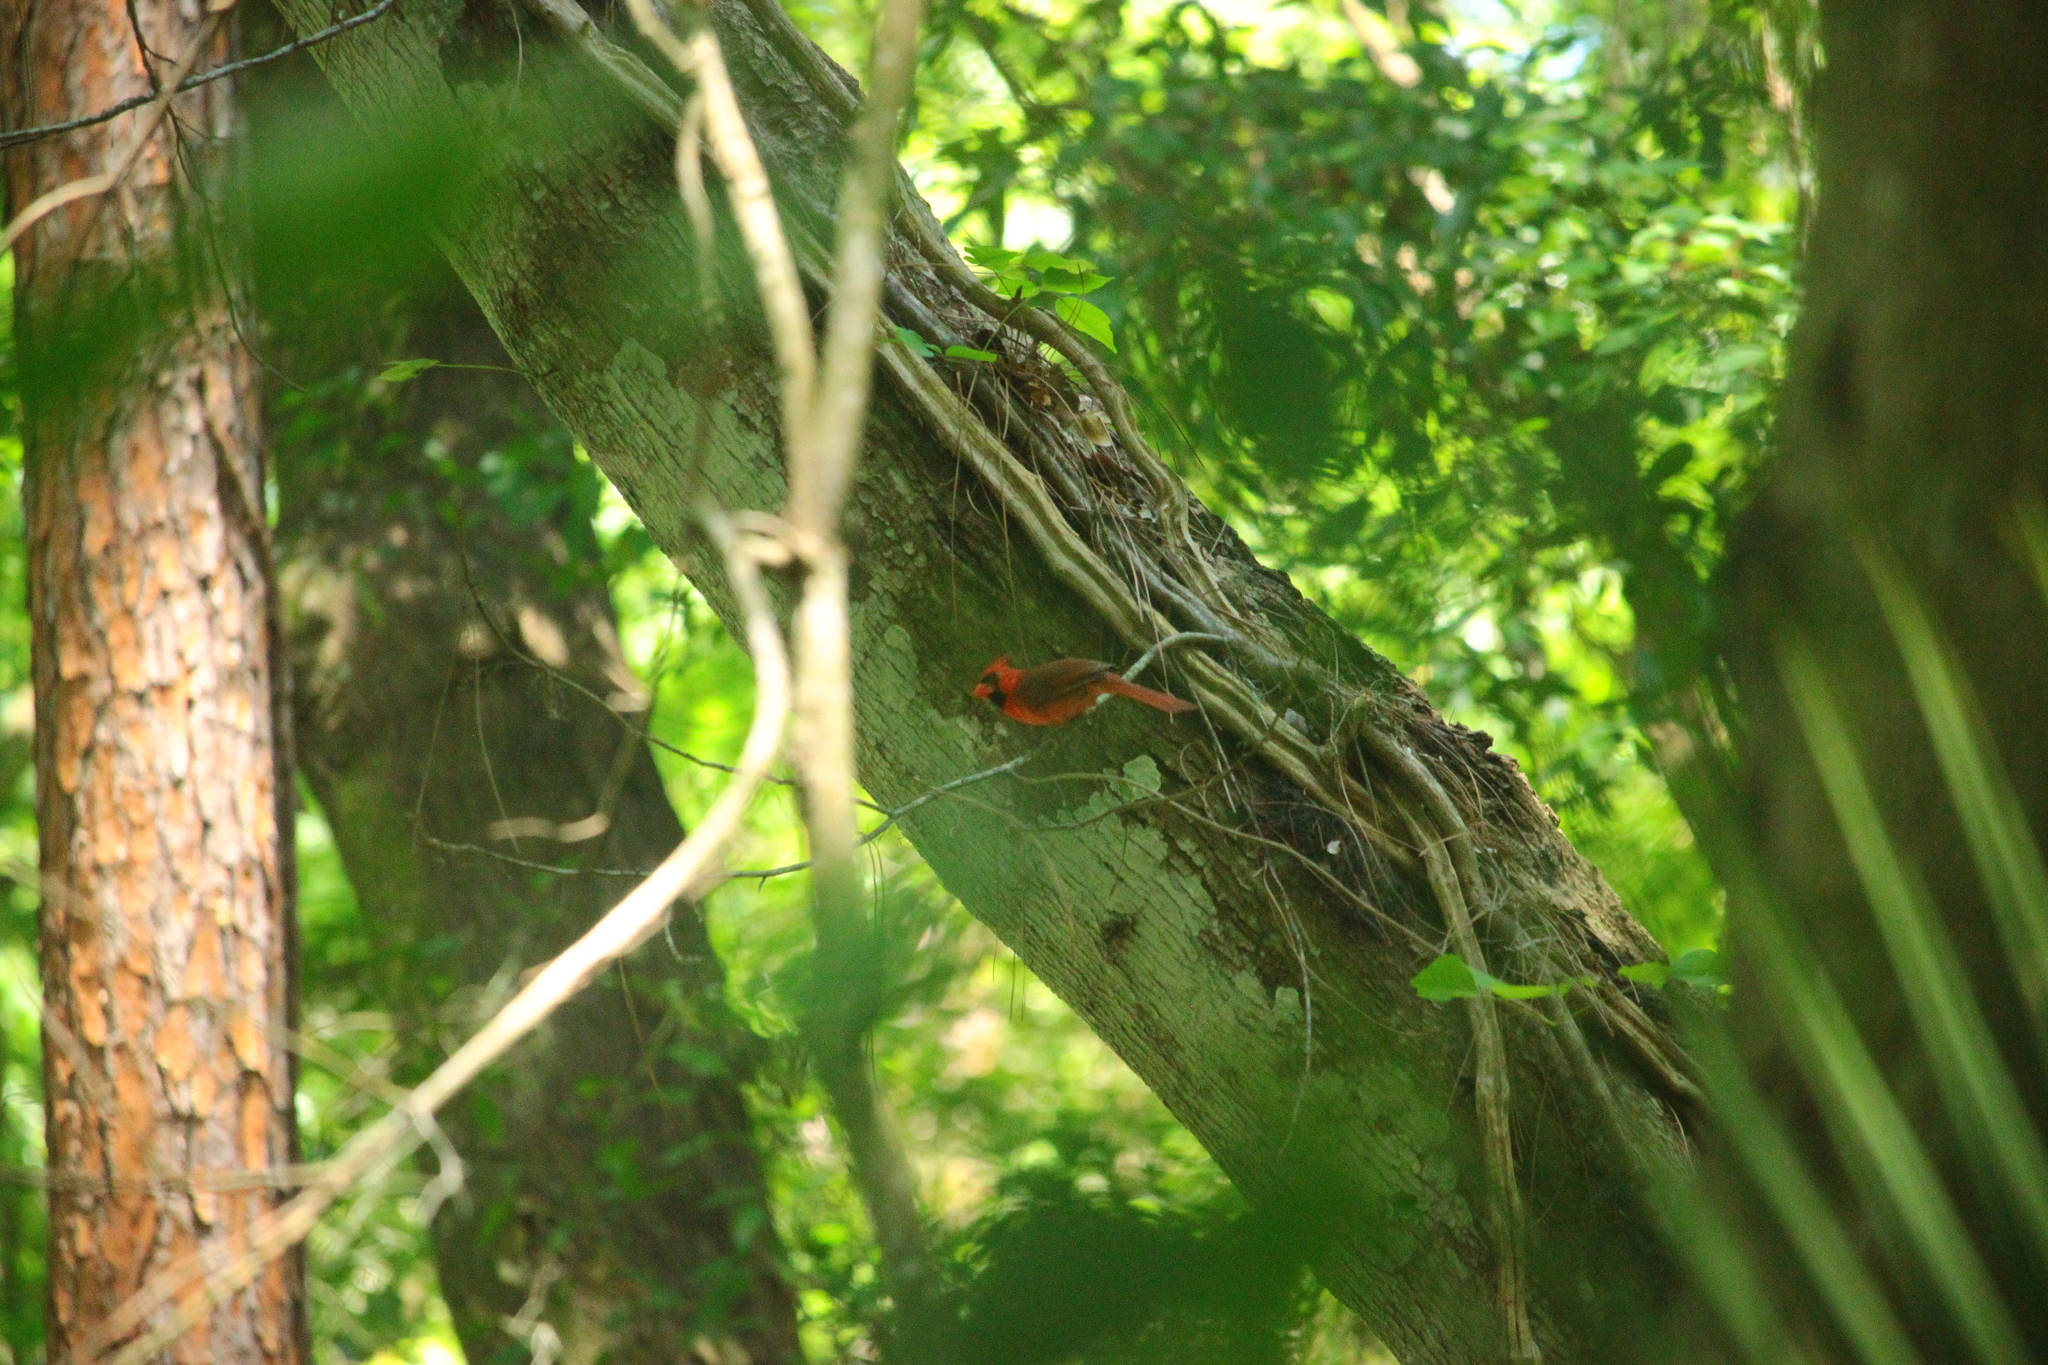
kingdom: Animalia
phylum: Chordata
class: Aves
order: Passeriformes
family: Cardinalidae
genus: Cardinalis
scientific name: Cardinalis cardinalis
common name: Northern cardinal
